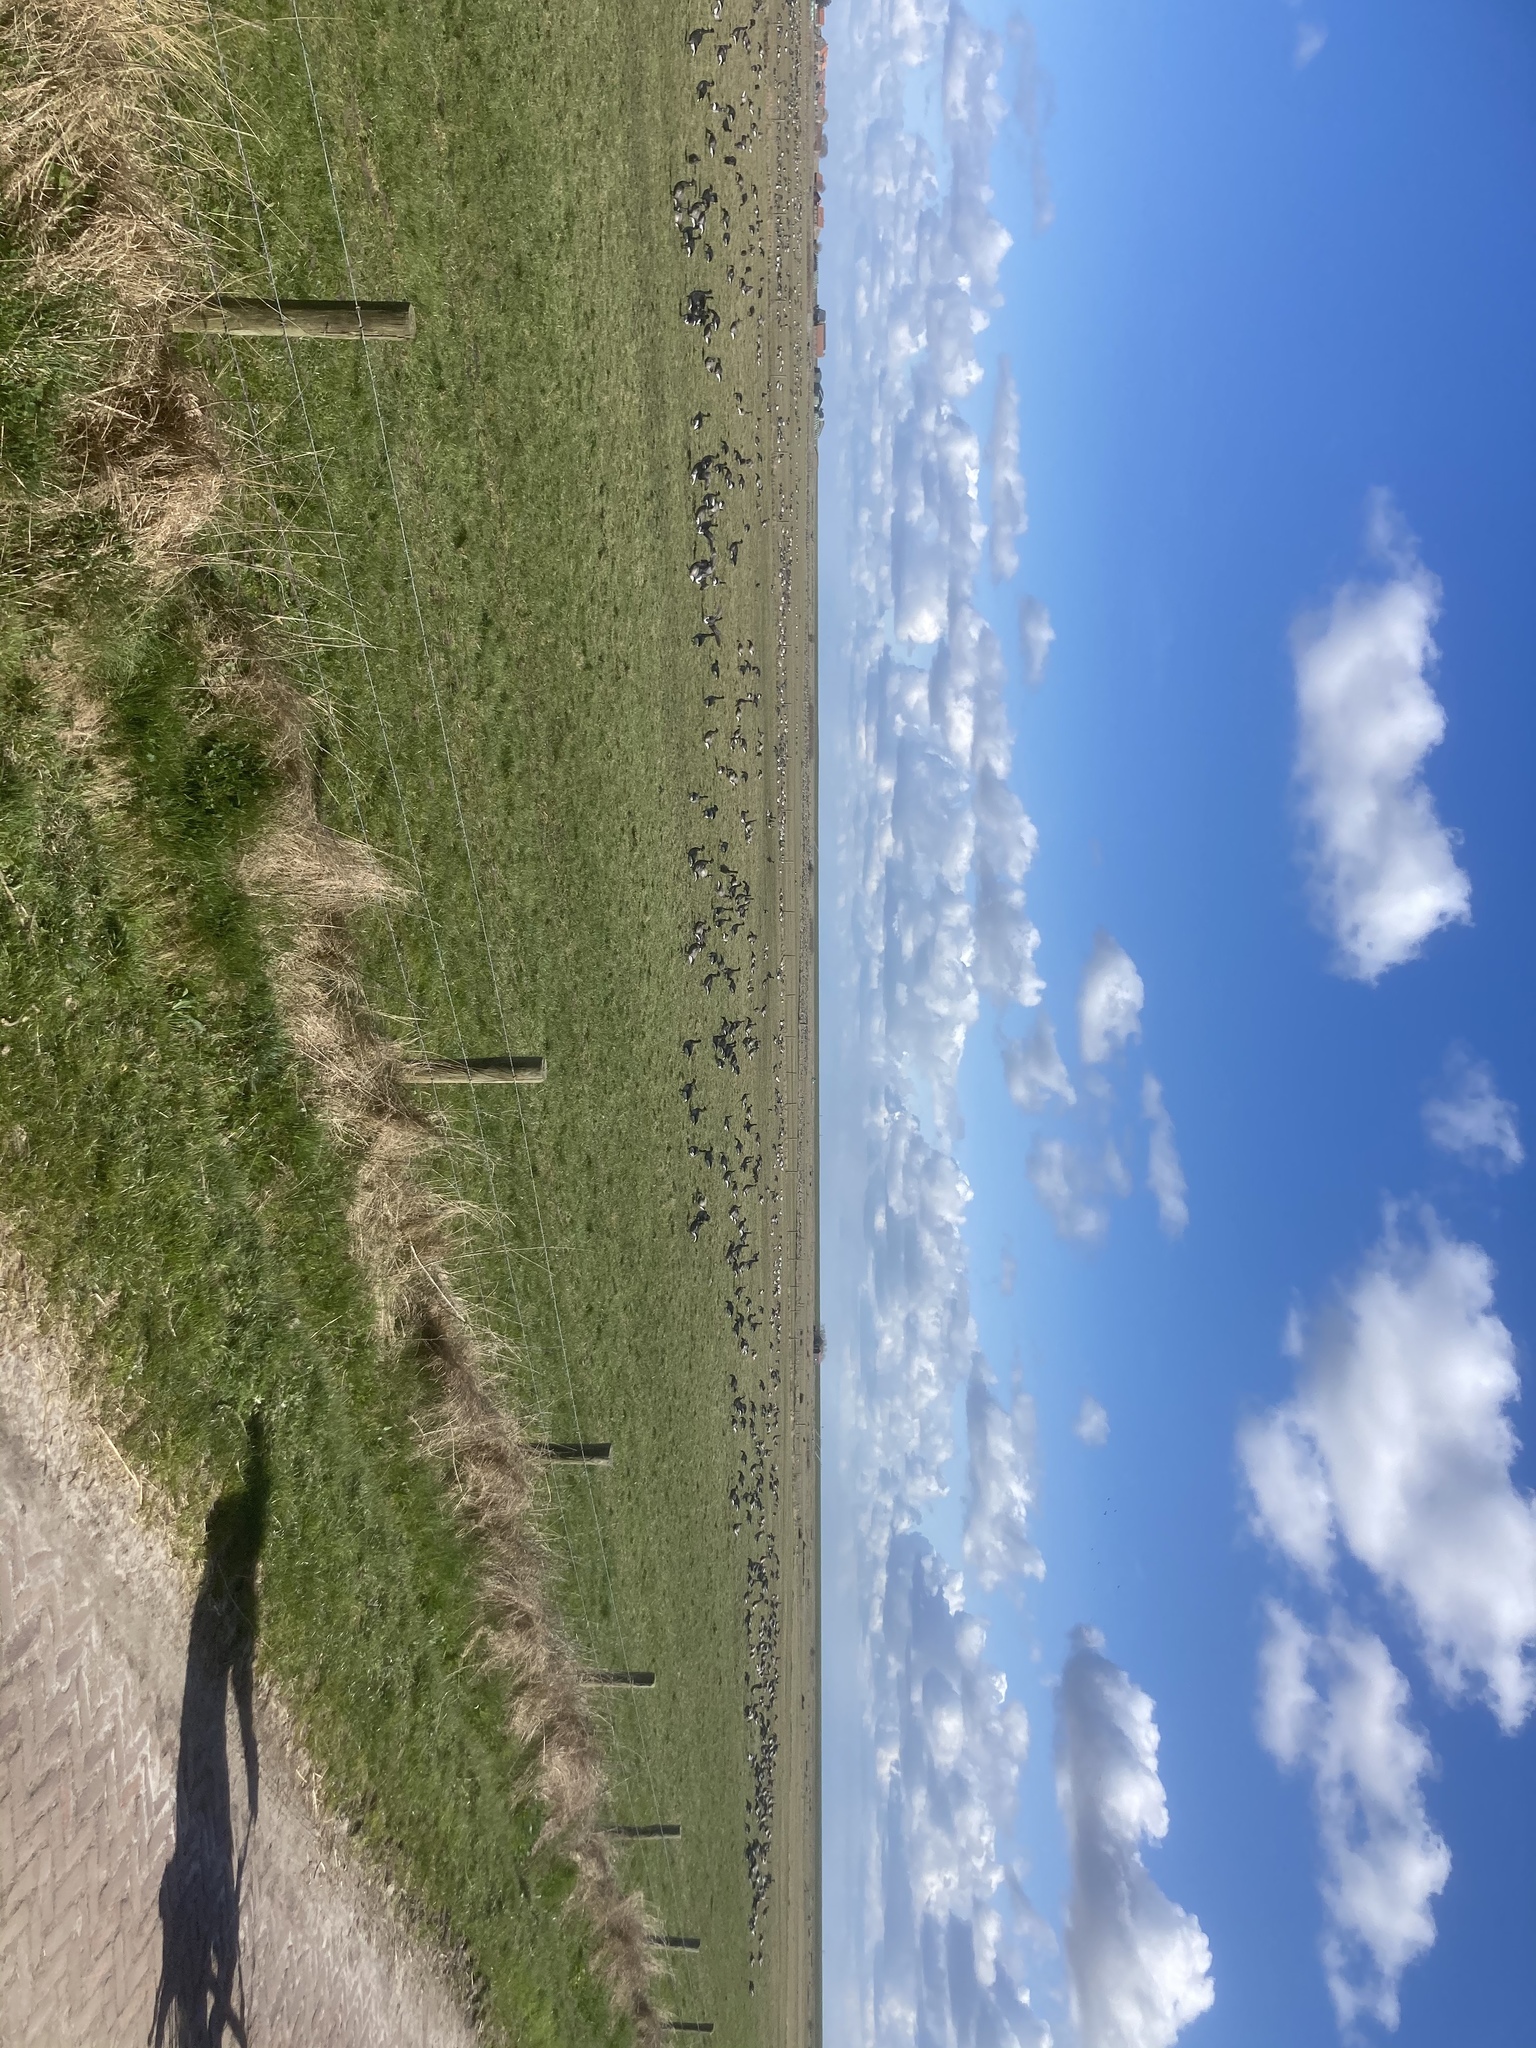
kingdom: Animalia
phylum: Chordata
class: Aves
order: Passeriformes
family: Corvidae
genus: Coloeus
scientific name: Coloeus monedula
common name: Western jackdaw
